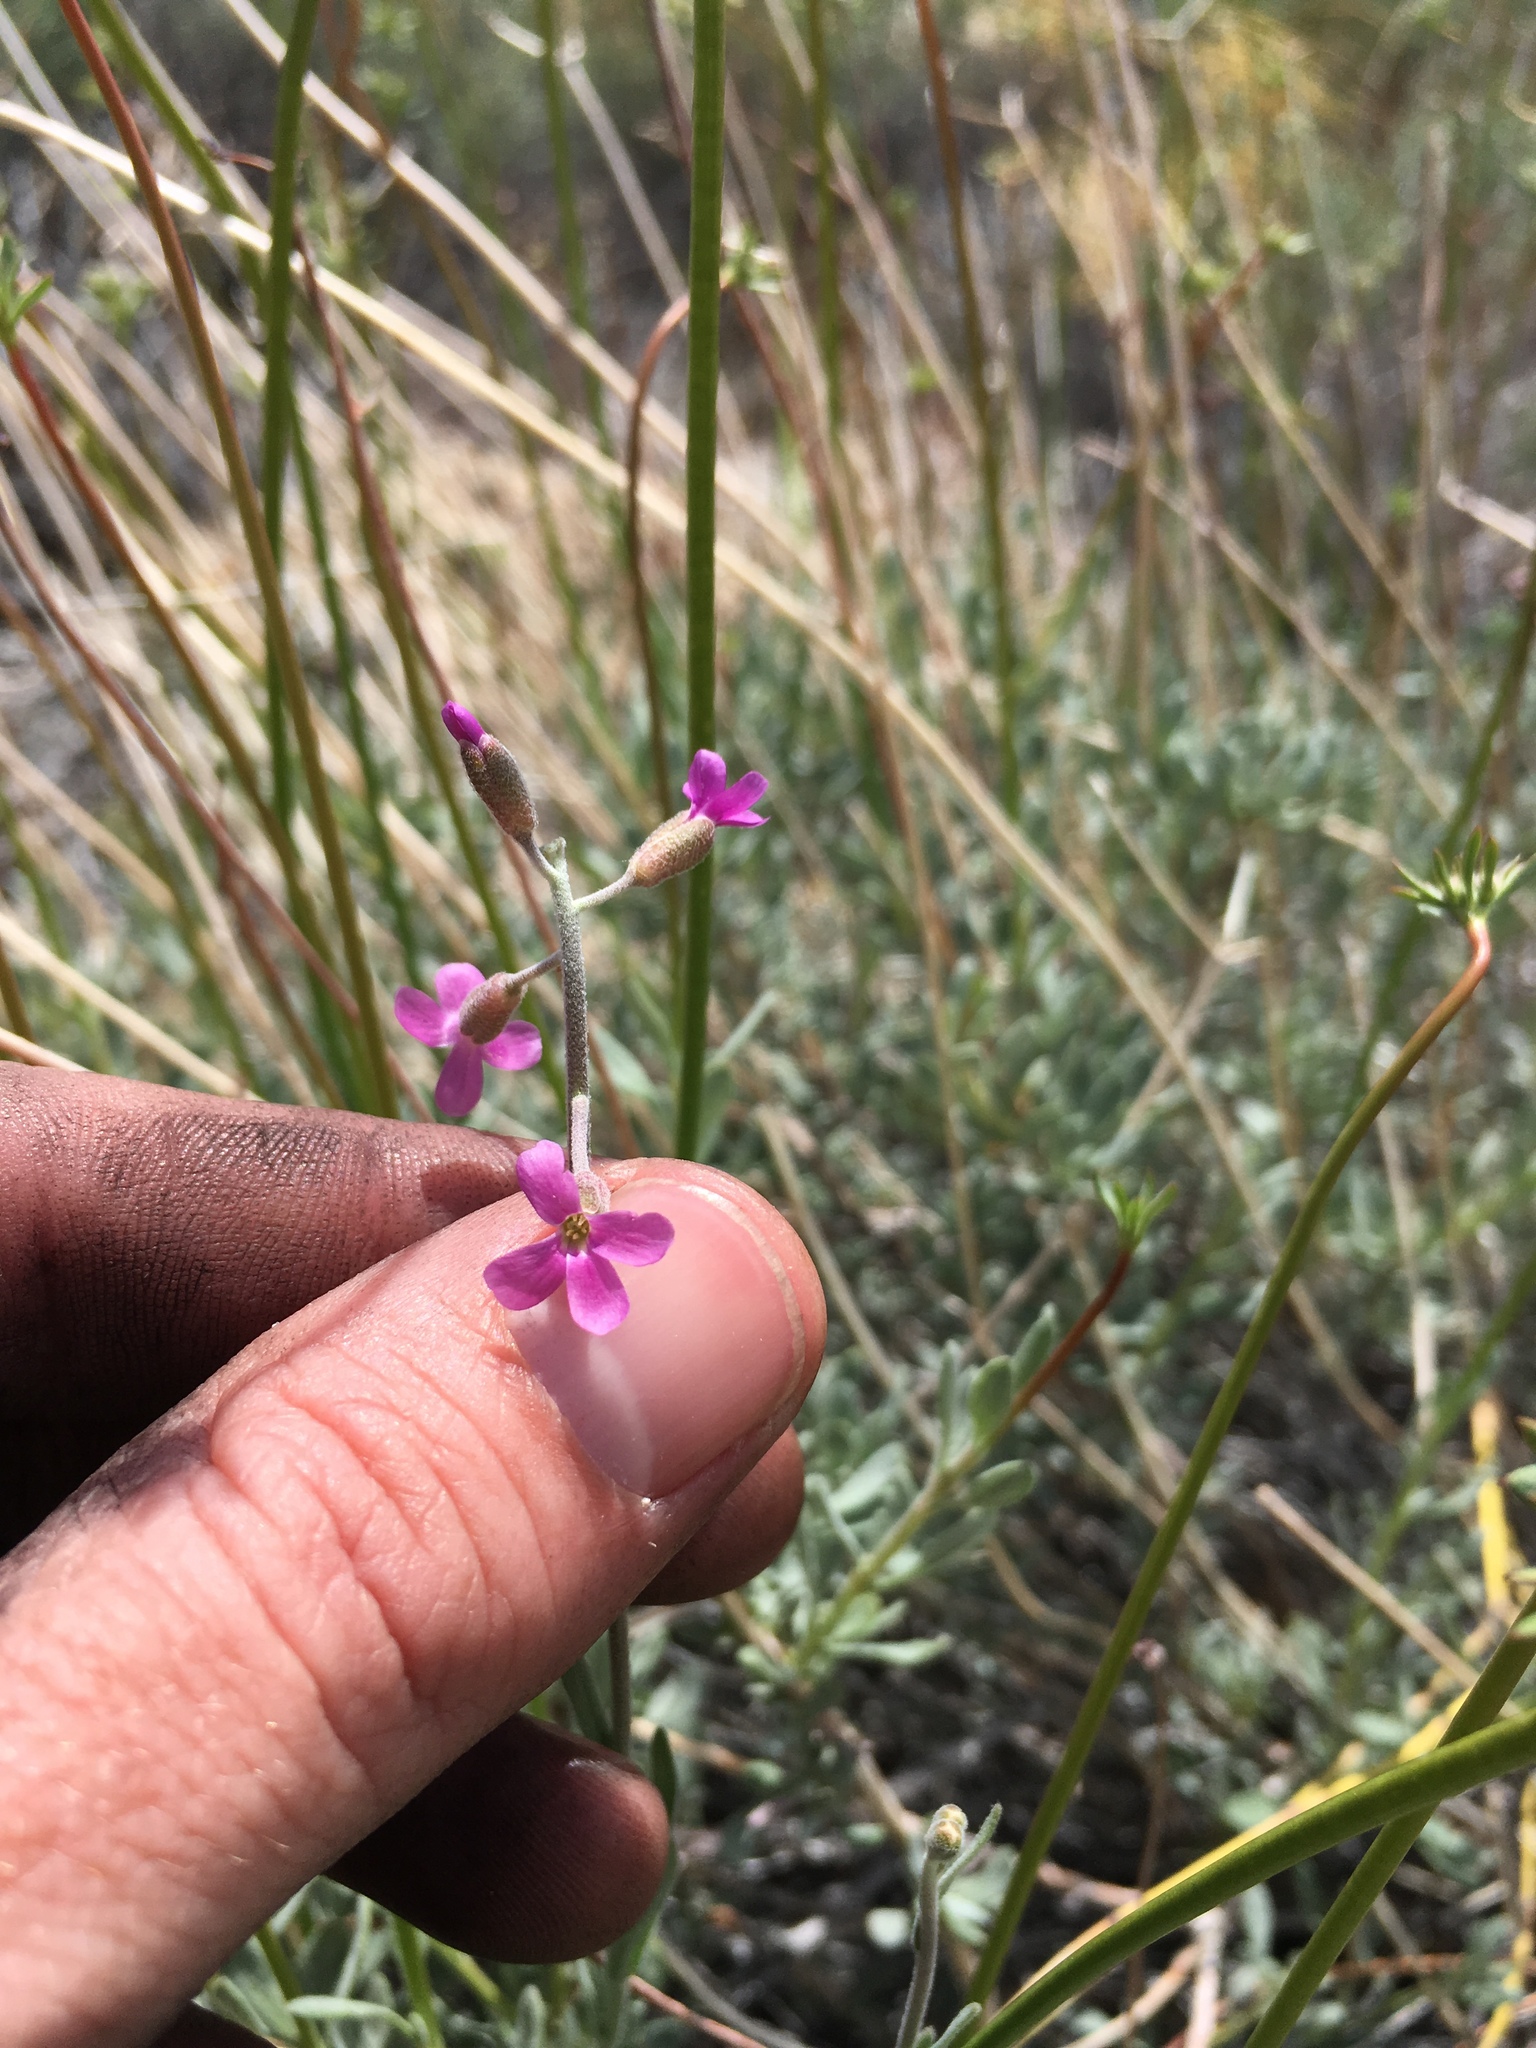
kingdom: Plantae
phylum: Tracheophyta
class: Magnoliopsida
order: Brassicales
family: Brassicaceae
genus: Boechera
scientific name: Boechera pulchra
